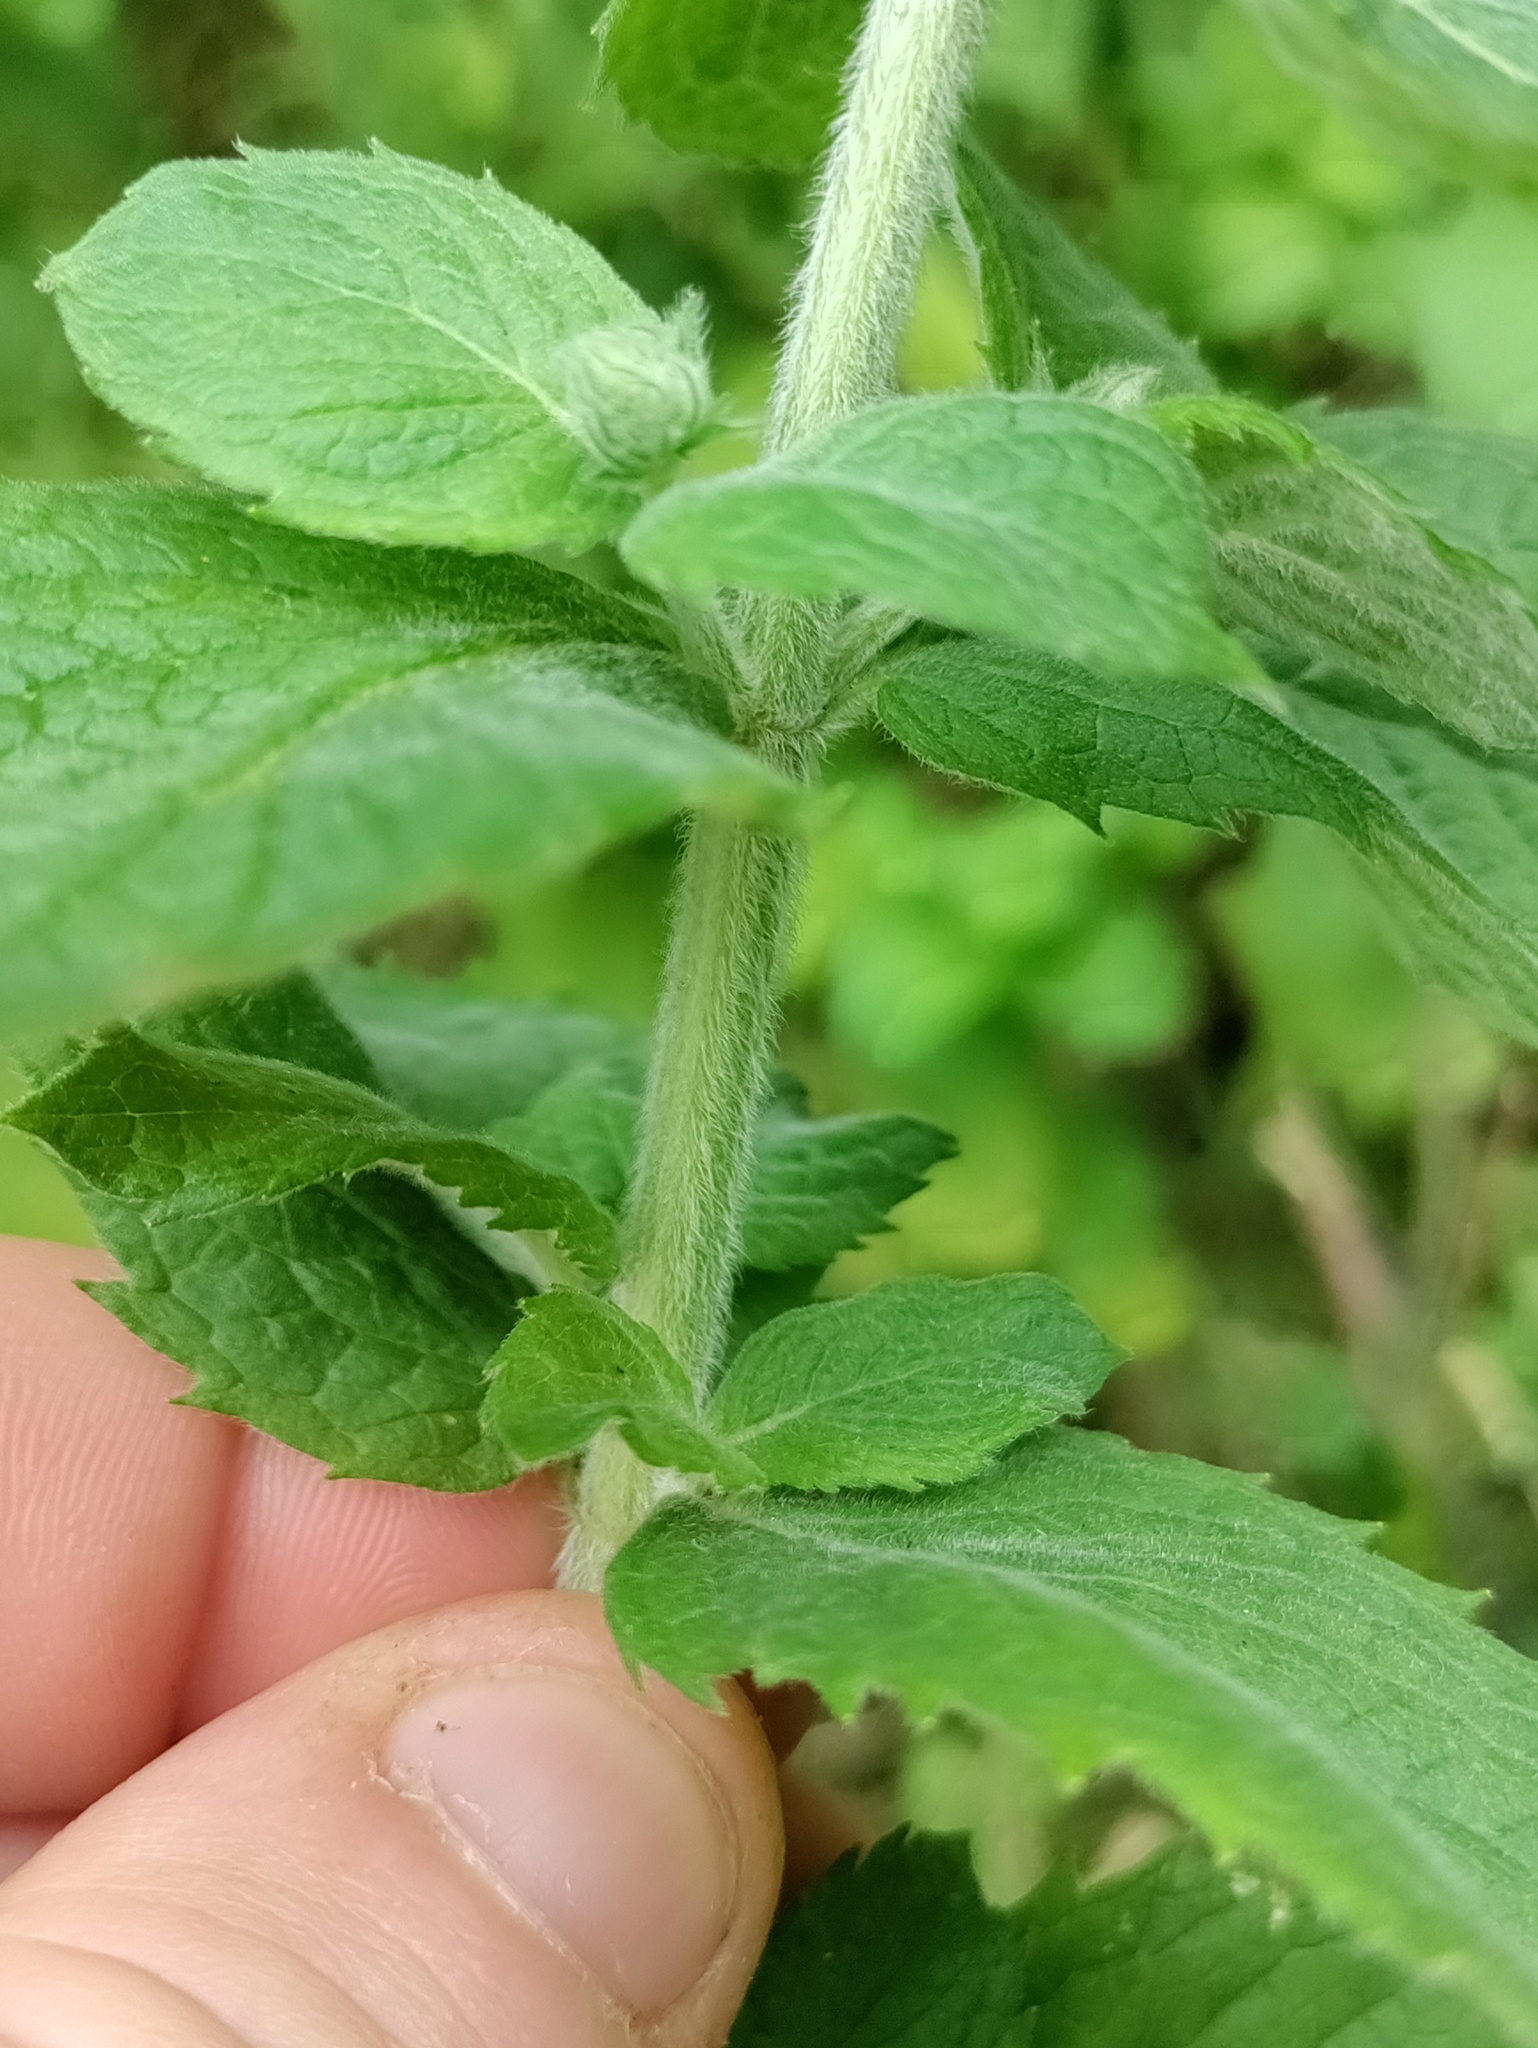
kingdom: Plantae
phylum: Tracheophyta
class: Magnoliopsida
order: Lamiales
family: Lamiaceae
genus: Mentha
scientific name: Mentha longifolia
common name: Horse mint
